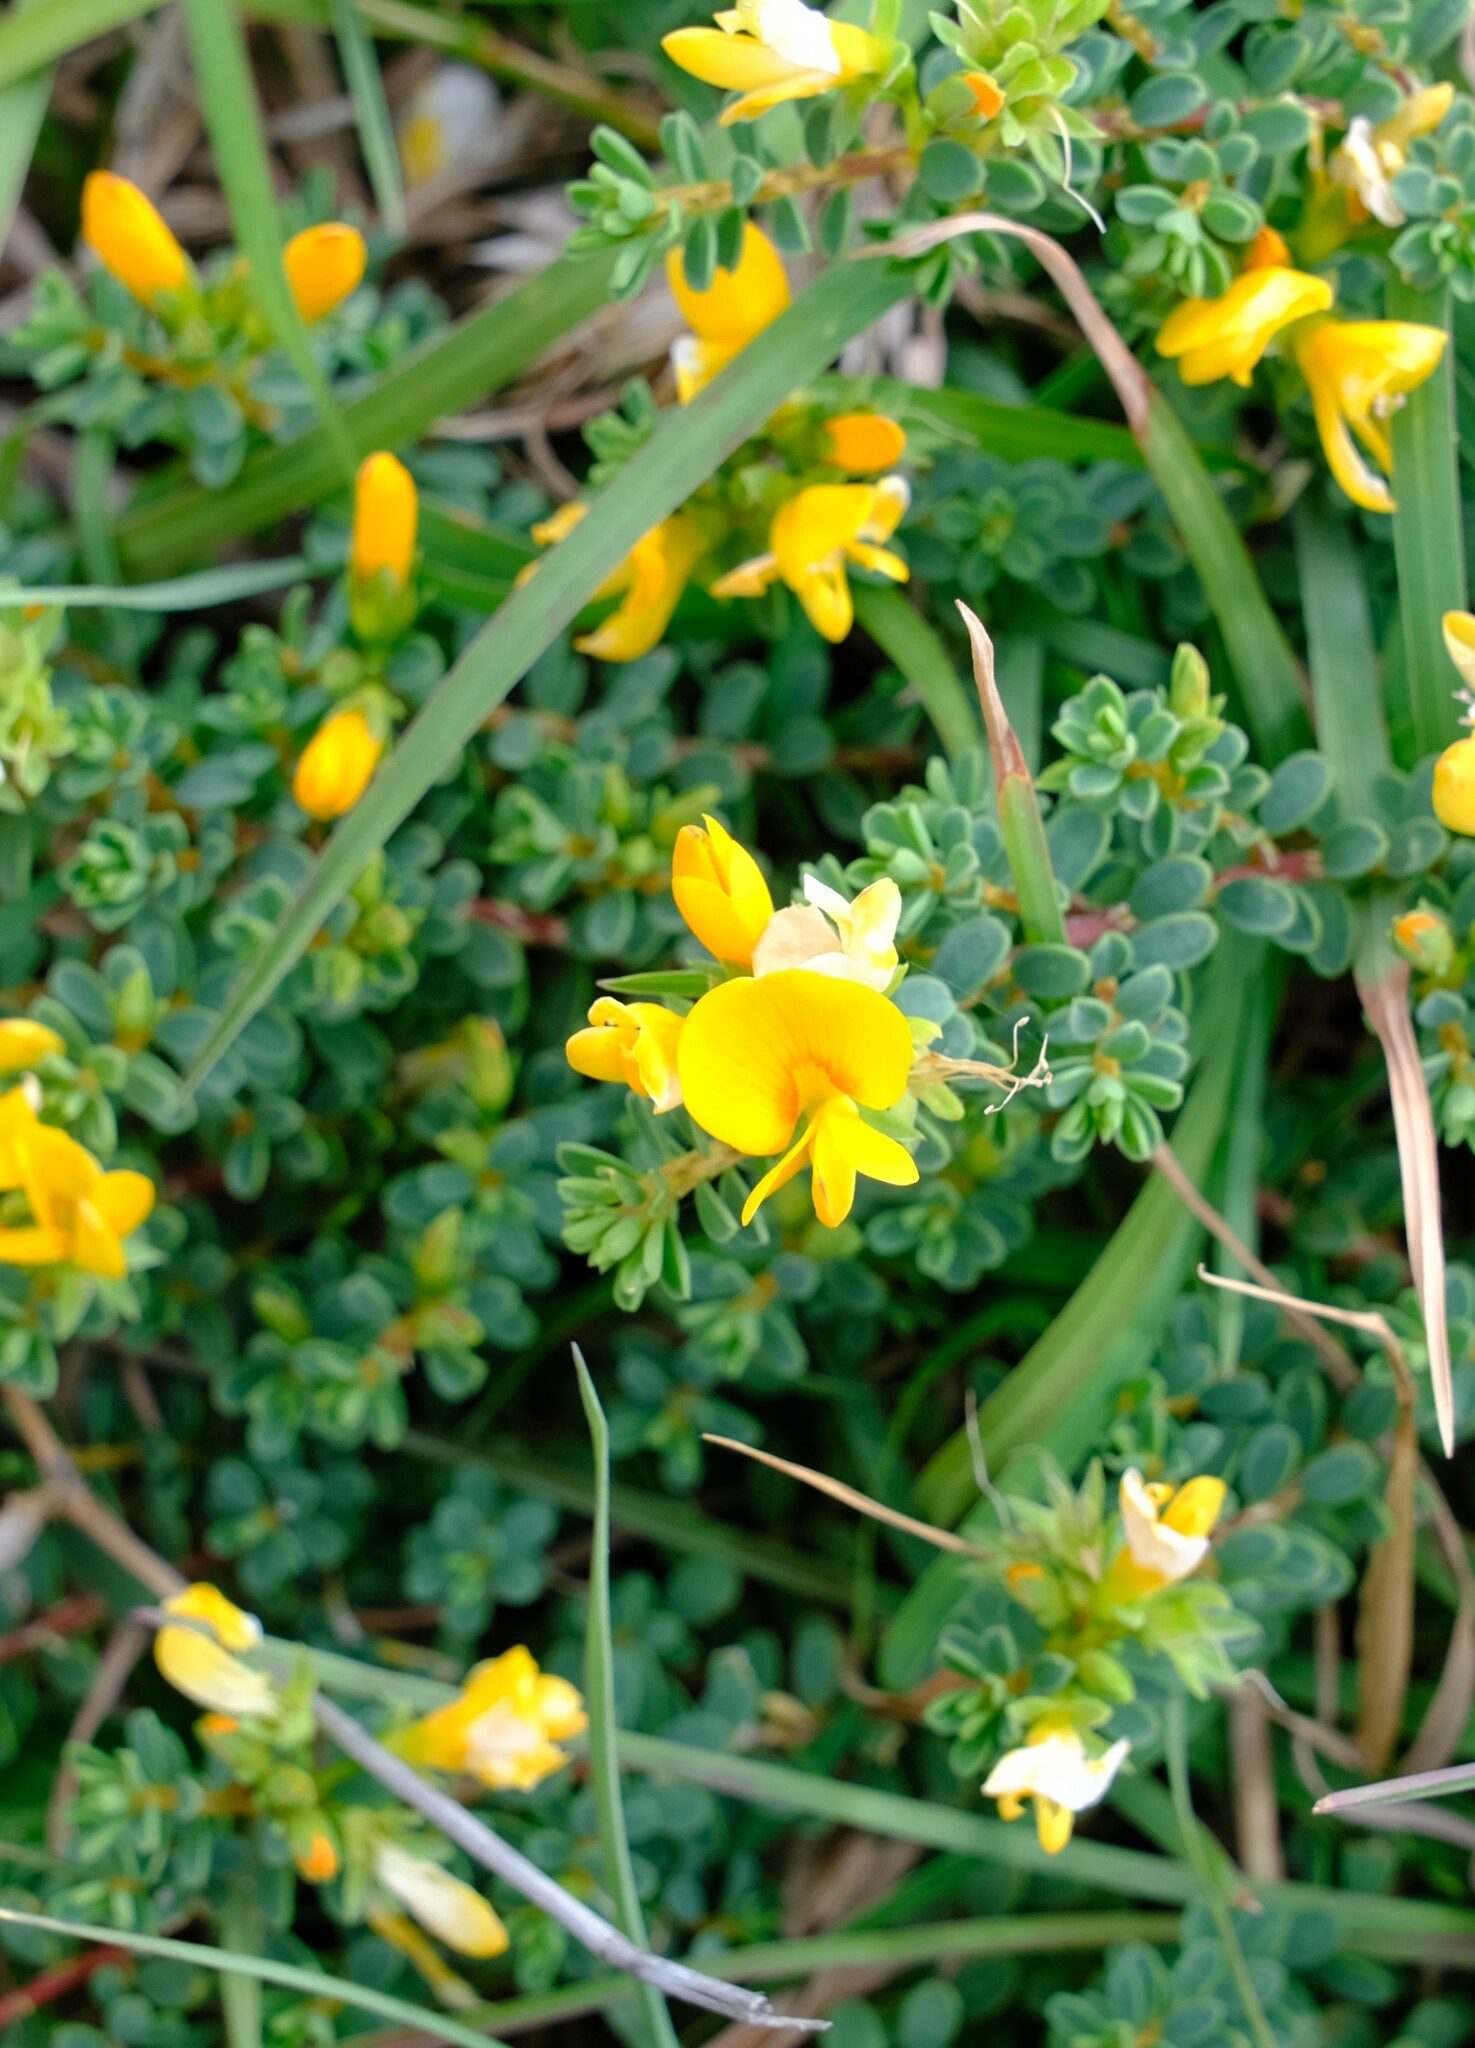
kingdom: Plantae
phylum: Tracheophyta
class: Magnoliopsida
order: Fabales
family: Fabaceae
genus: Pultenaea
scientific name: Pultenaea maritima
